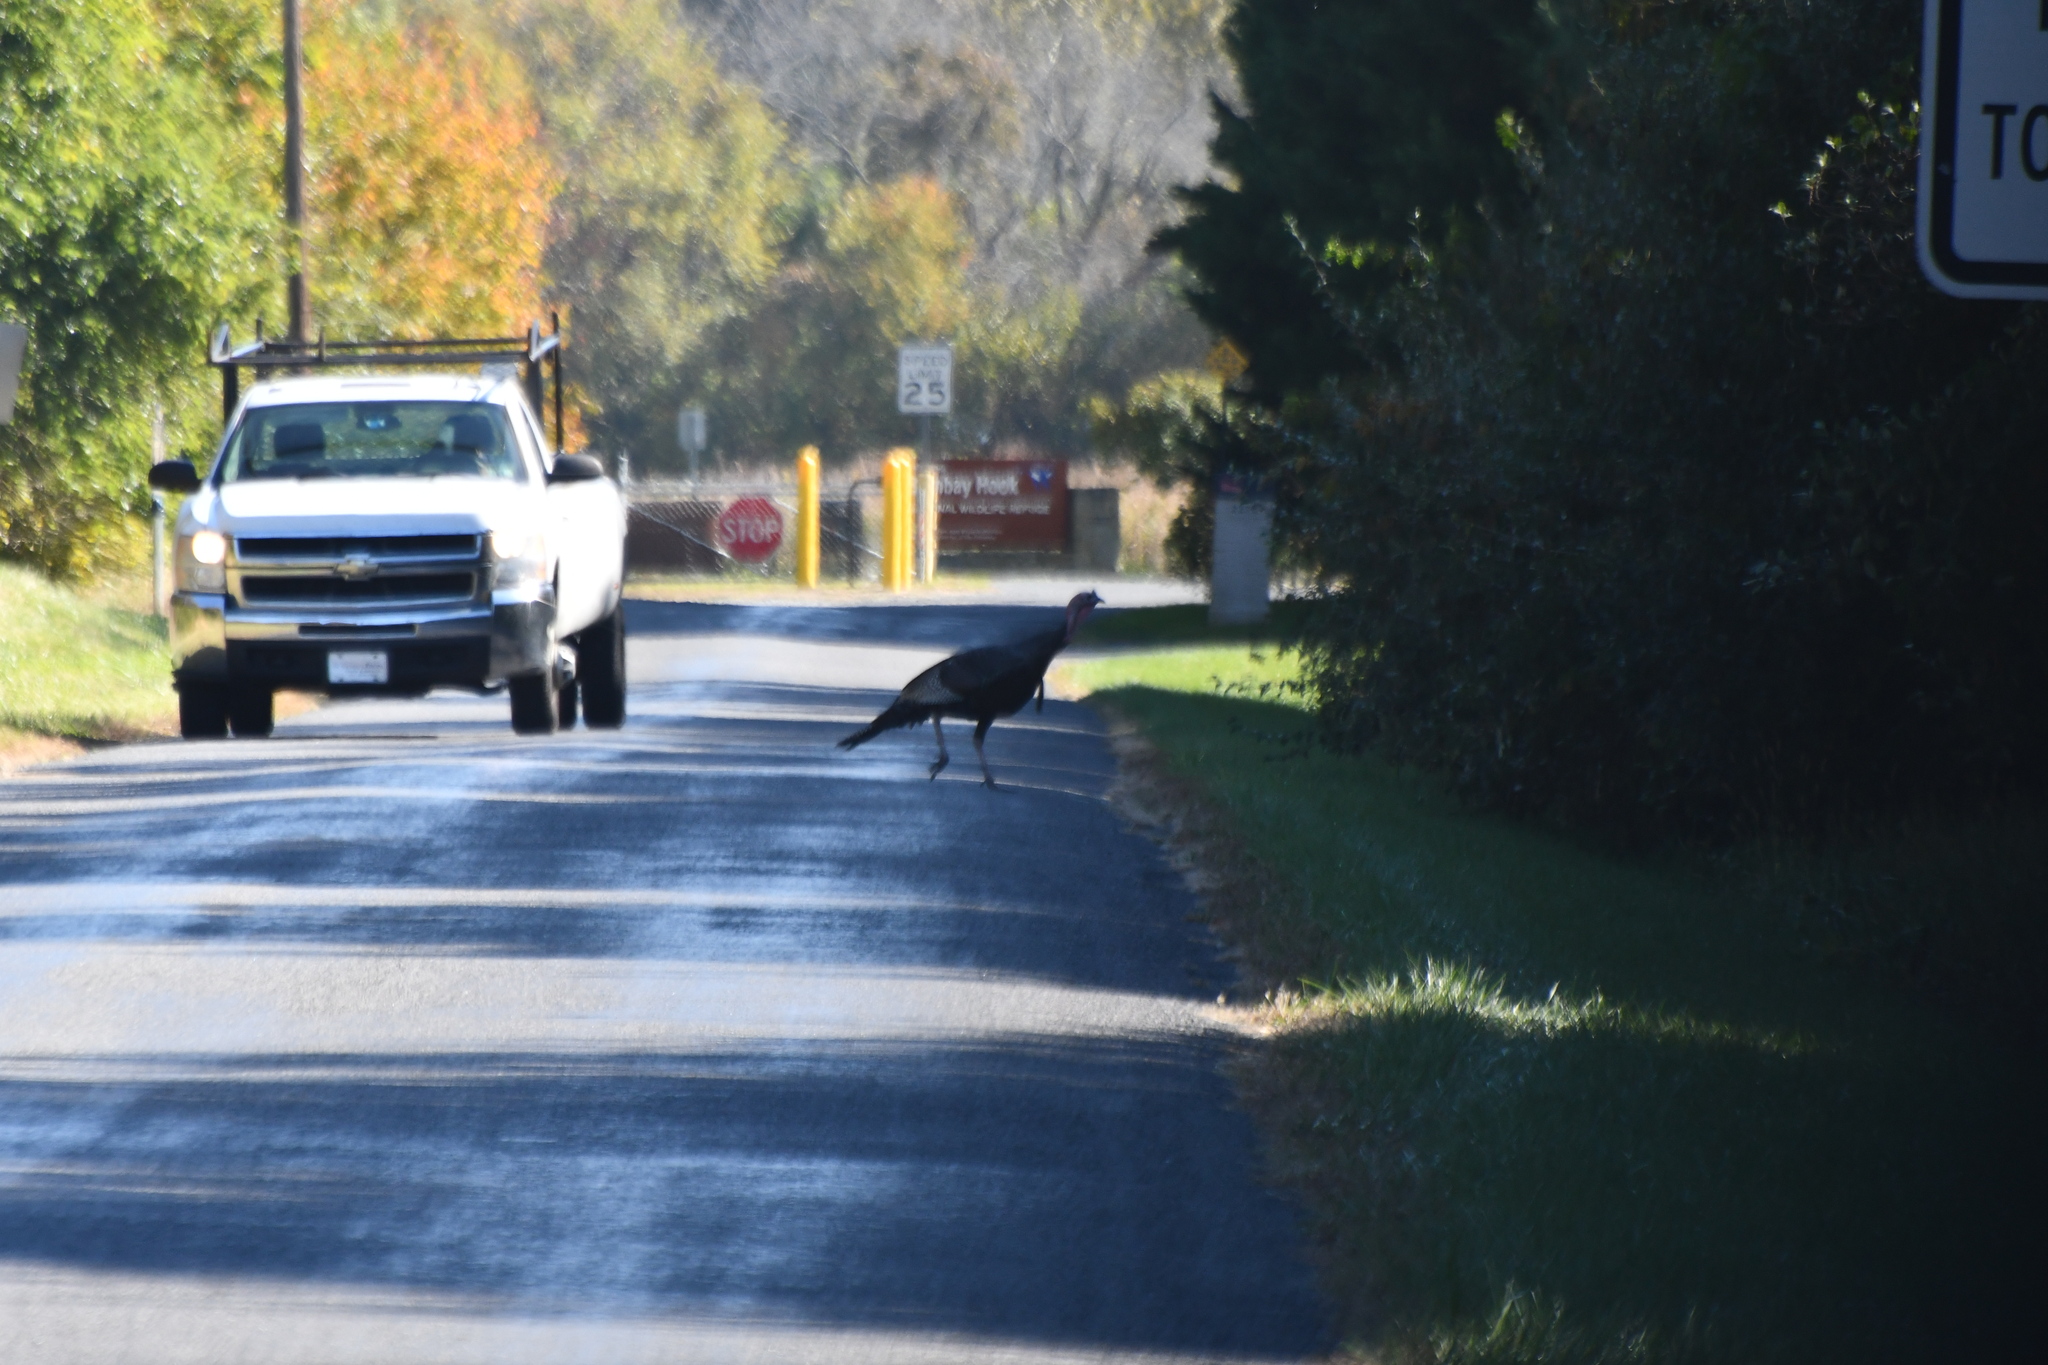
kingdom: Animalia
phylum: Chordata
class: Aves
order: Galliformes
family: Phasianidae
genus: Meleagris
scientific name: Meleagris gallopavo
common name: Wild turkey
